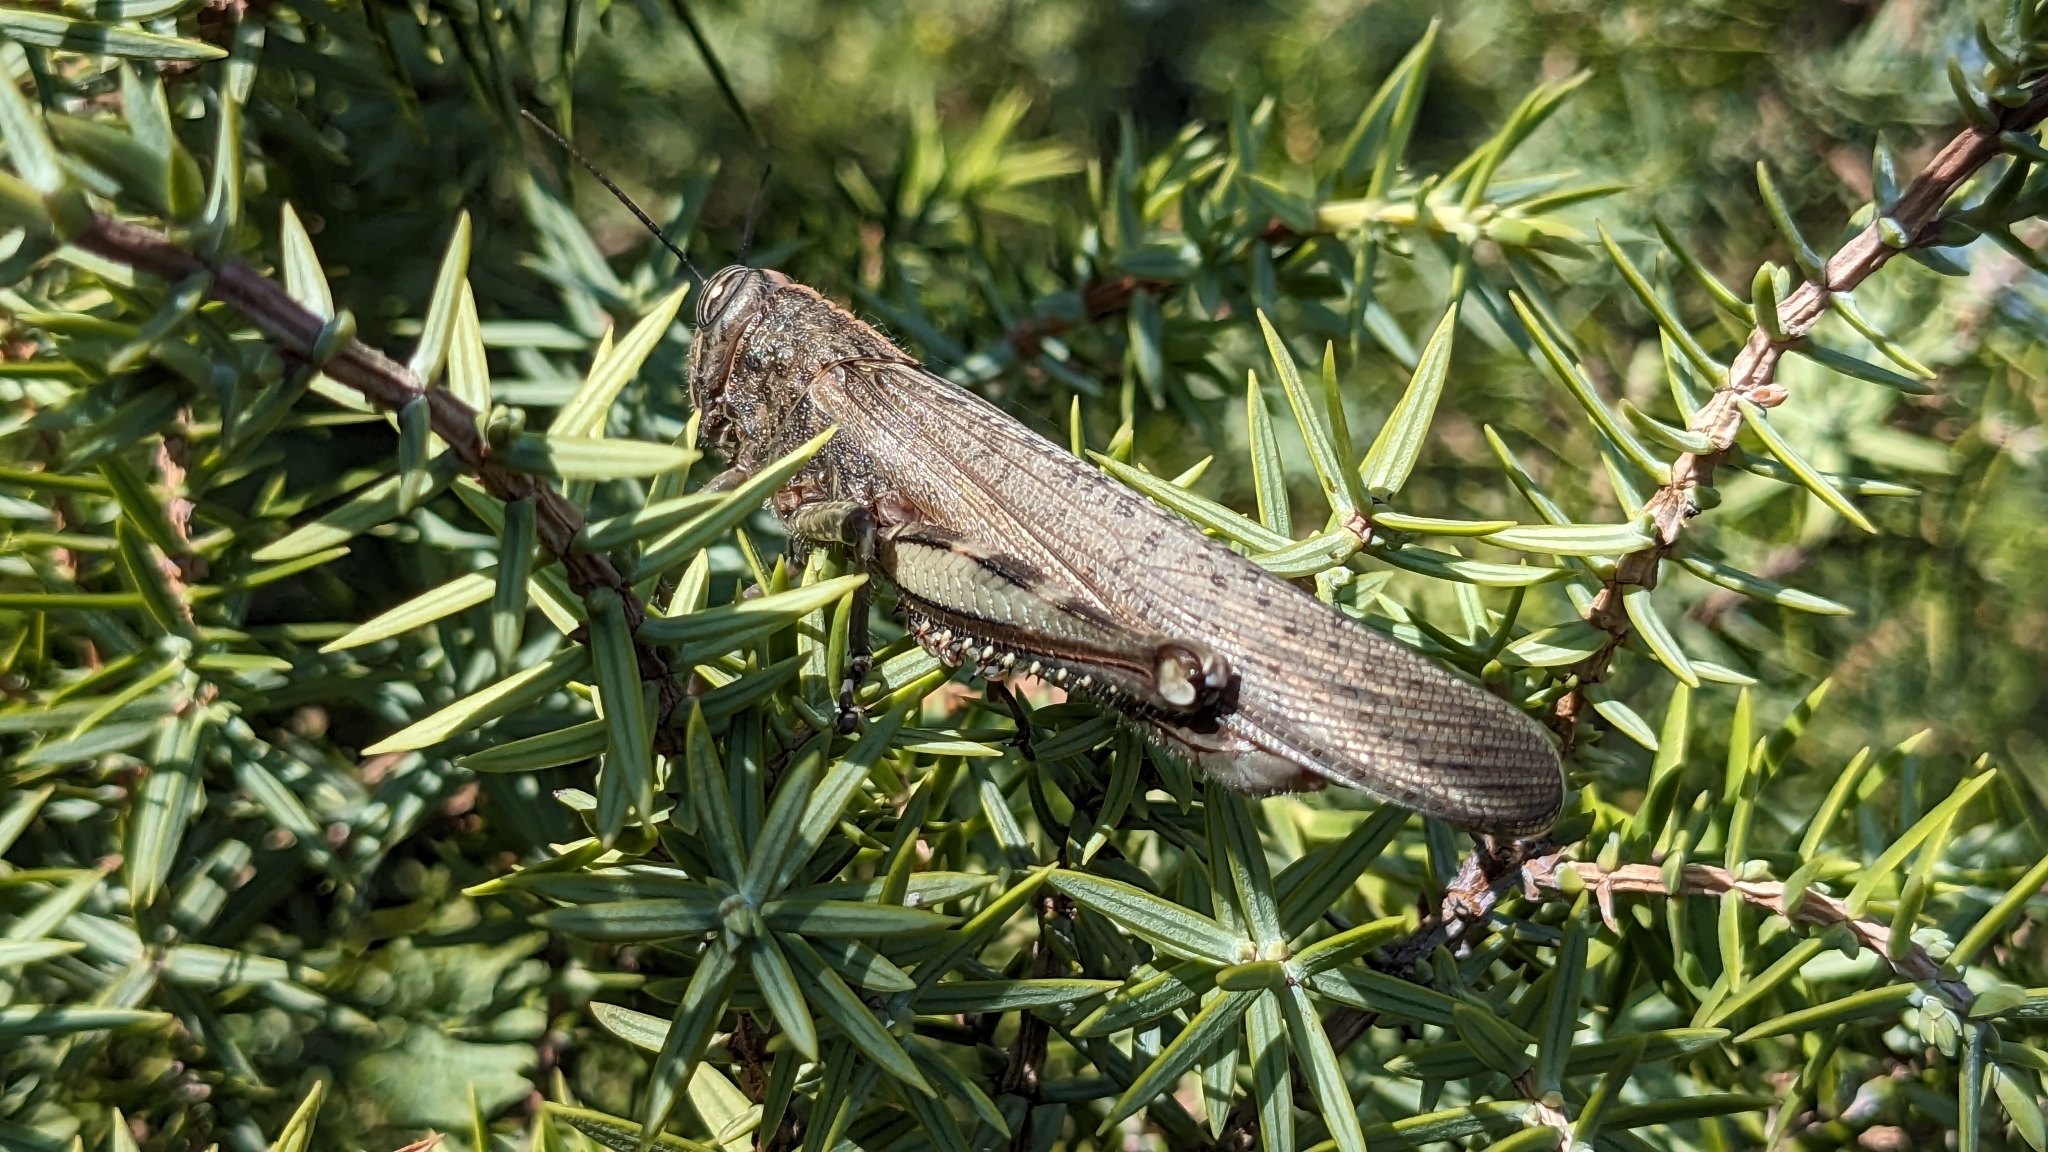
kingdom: Animalia
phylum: Arthropoda
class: Insecta
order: Orthoptera
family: Acrididae
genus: Anacridium
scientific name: Anacridium aegyptium
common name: Egyptian grasshopper
